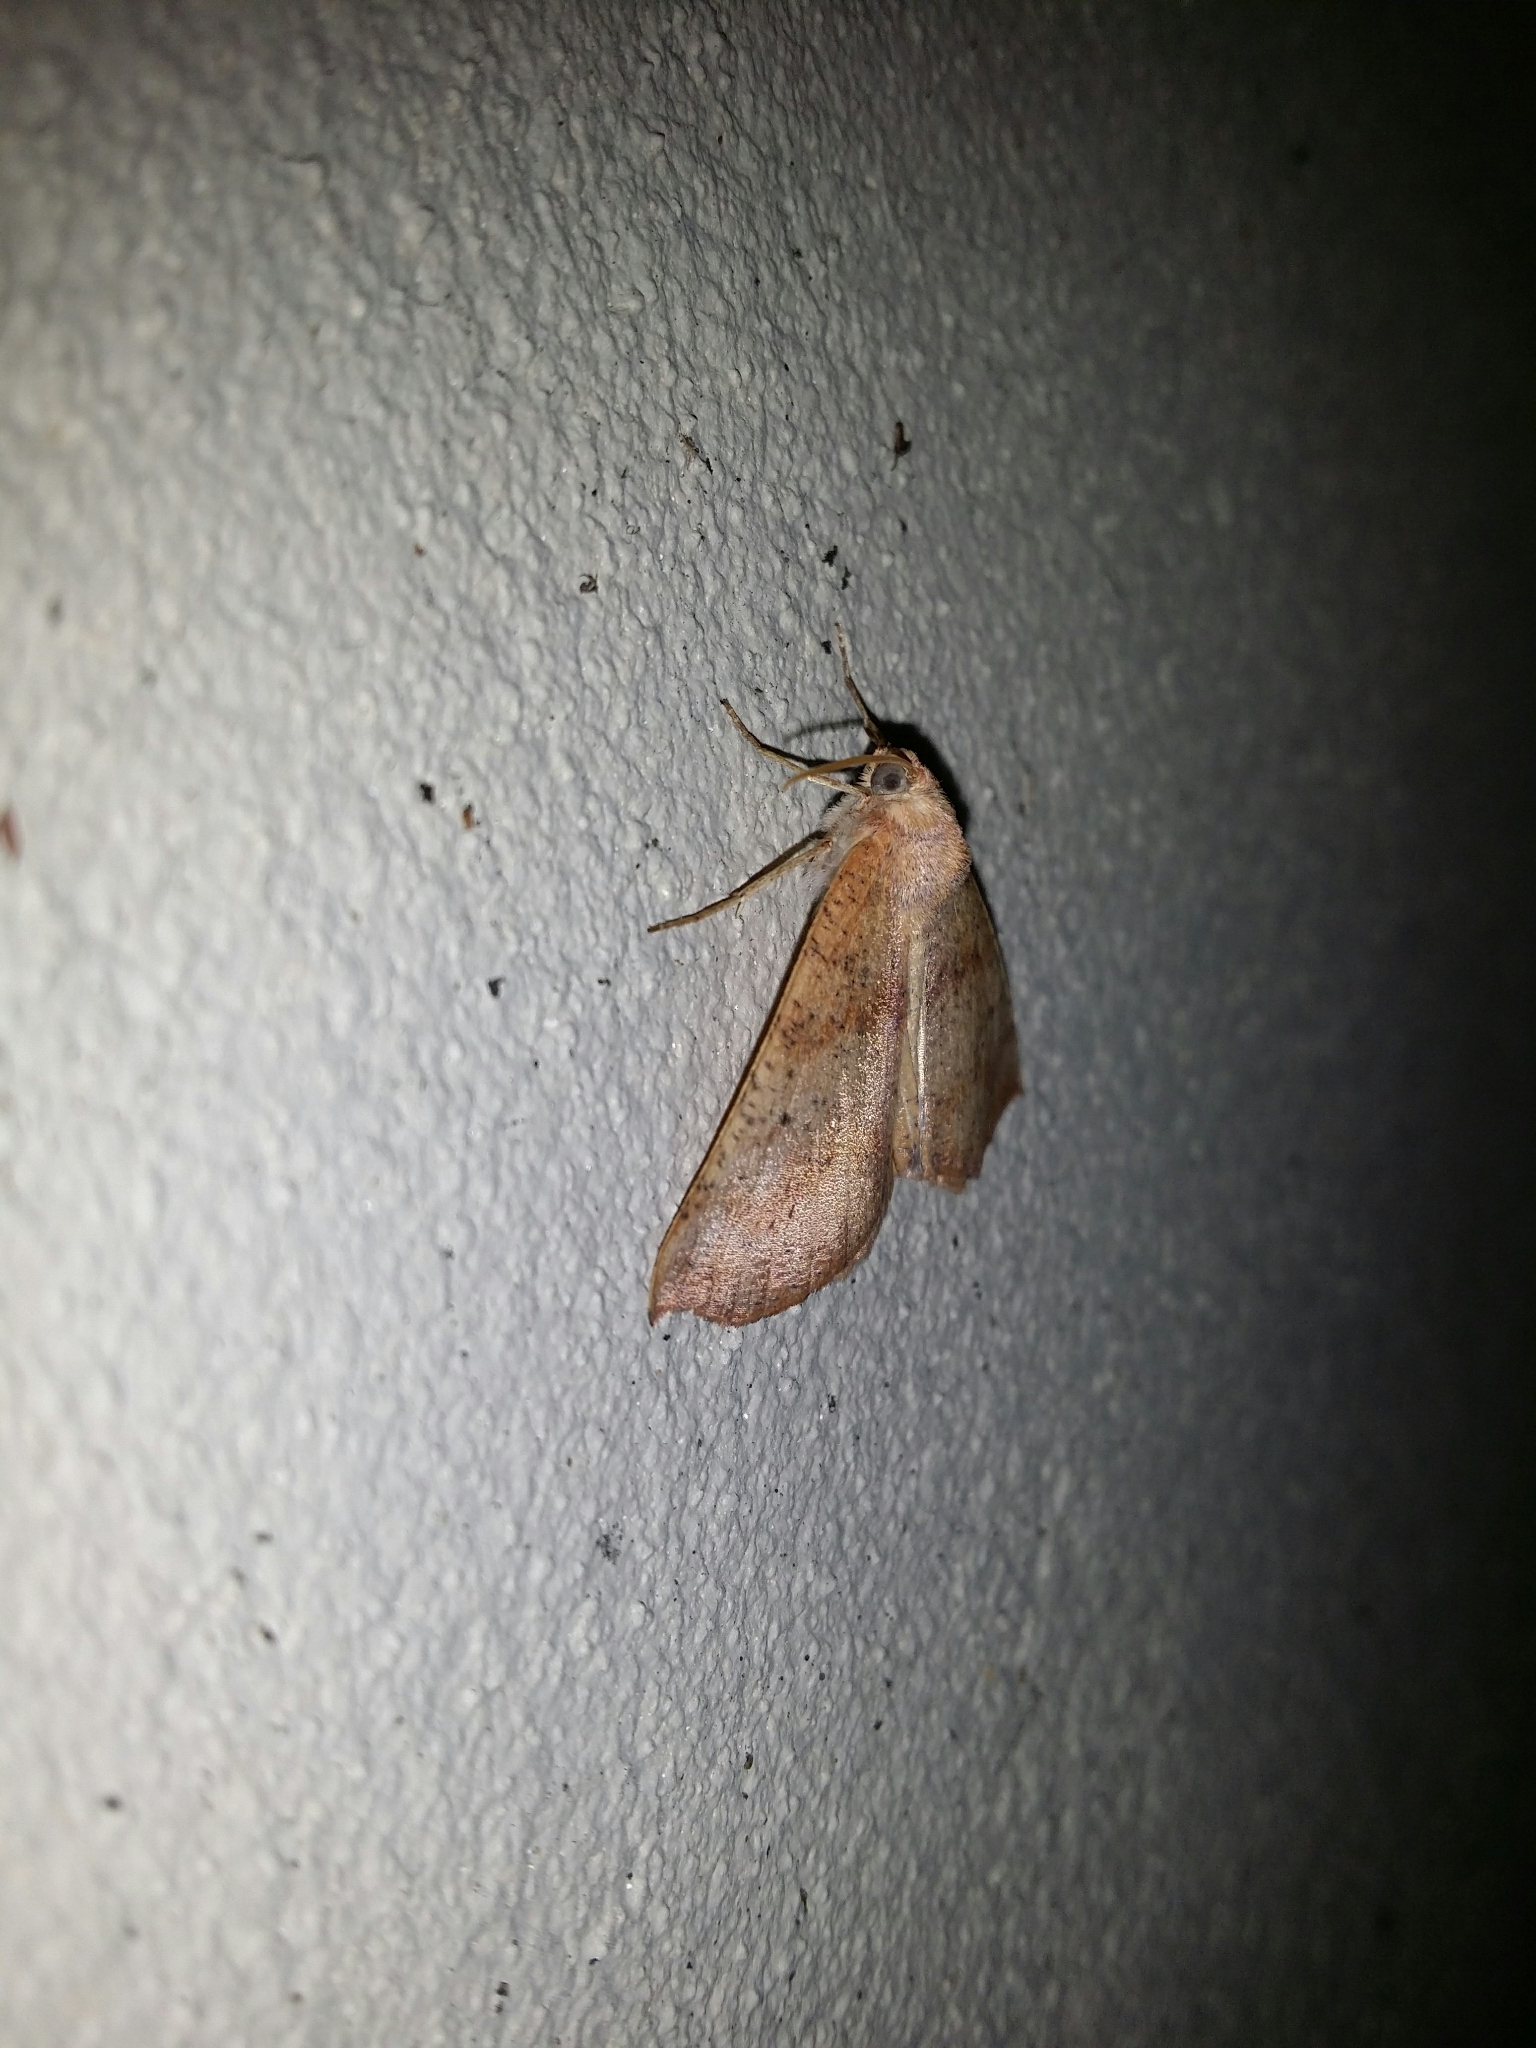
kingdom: Animalia
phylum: Arthropoda
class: Insecta
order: Lepidoptera
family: Geometridae
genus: Mnesampela
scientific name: Mnesampela privata
